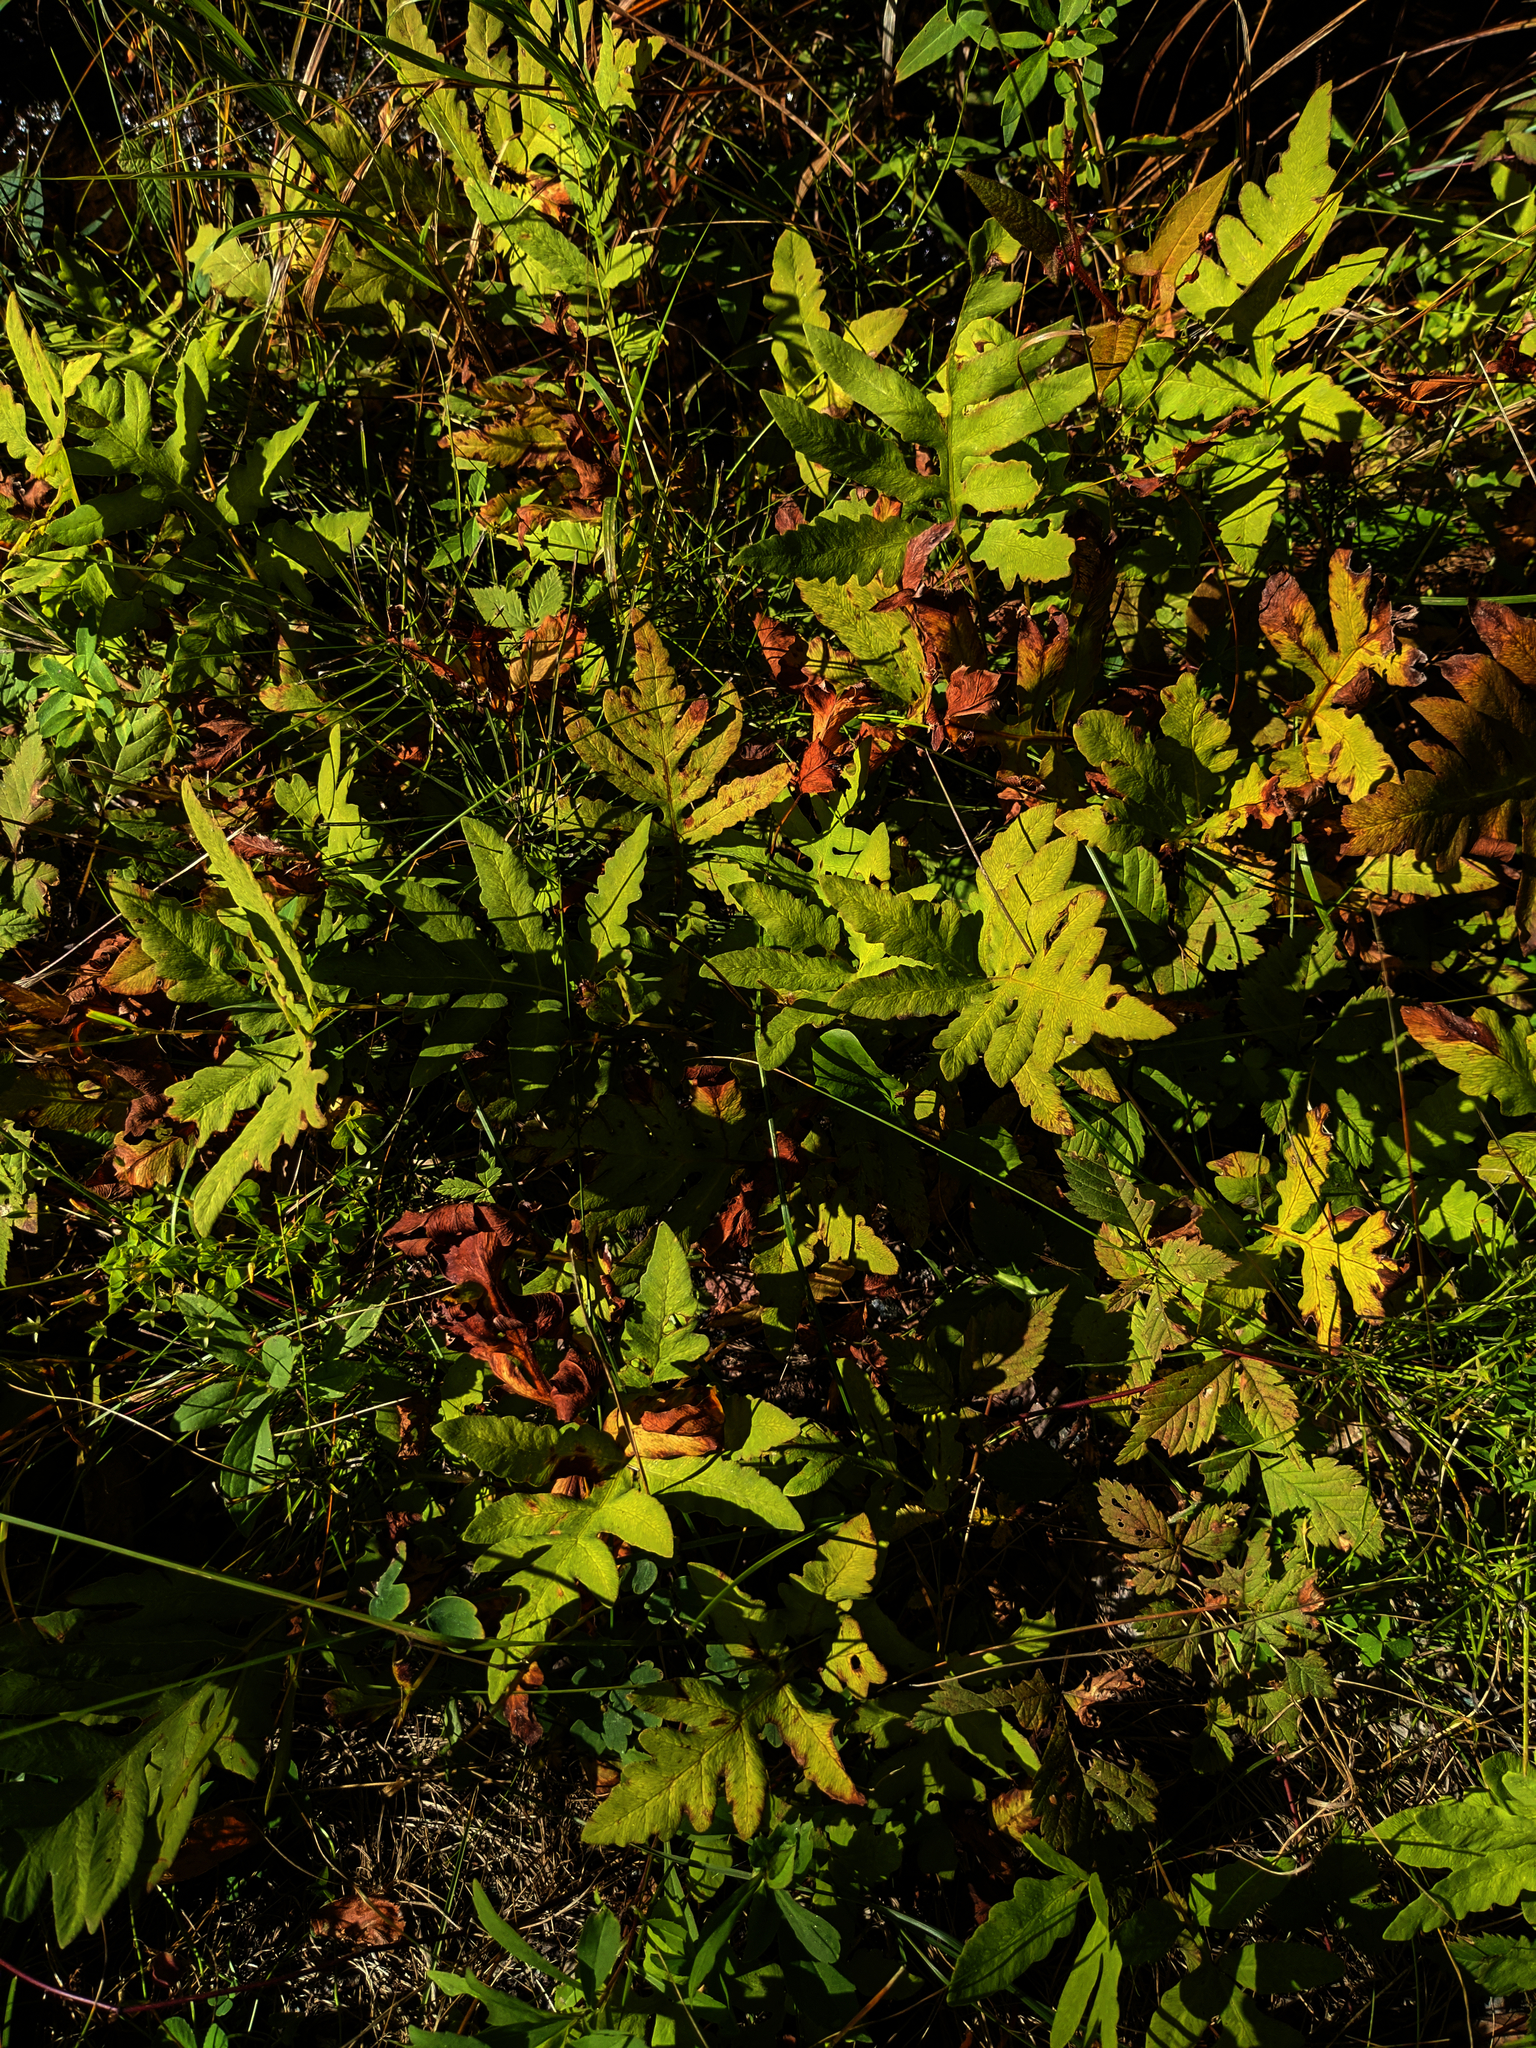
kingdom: Plantae
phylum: Tracheophyta
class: Polypodiopsida
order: Polypodiales
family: Onocleaceae
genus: Onoclea
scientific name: Onoclea sensibilis
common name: Sensitive fern
